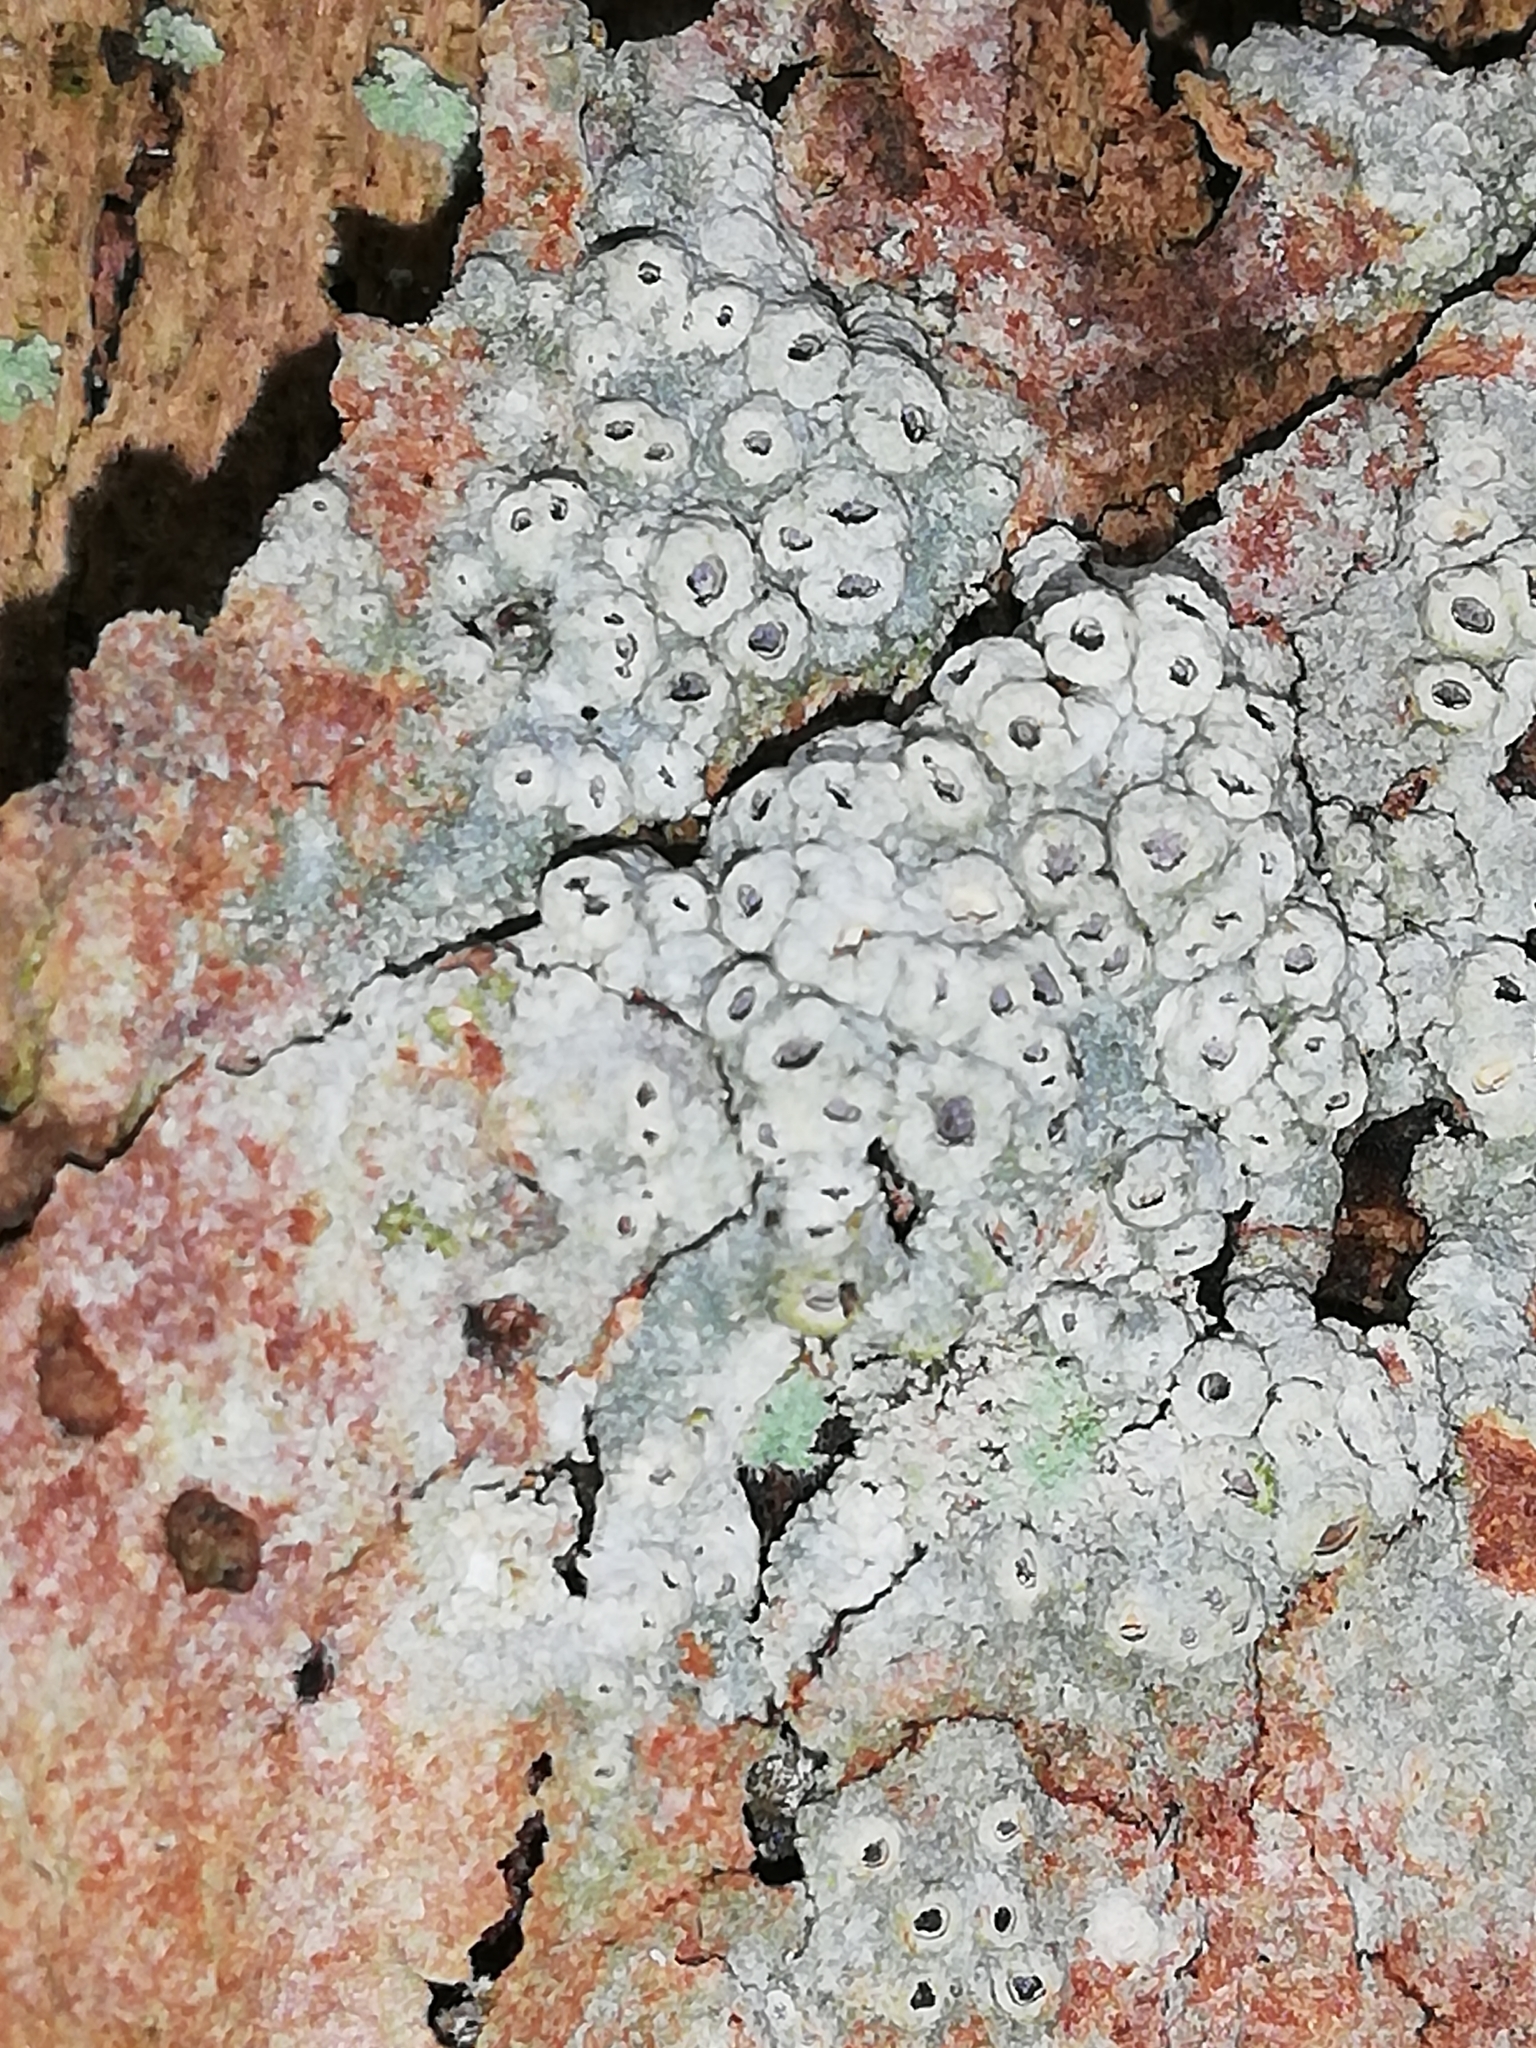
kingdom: Fungi
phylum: Ascomycota
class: Lecanoromycetes
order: Ostropales
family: Graphidaceae
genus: Thelotrema
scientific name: Thelotrema lepadinum
